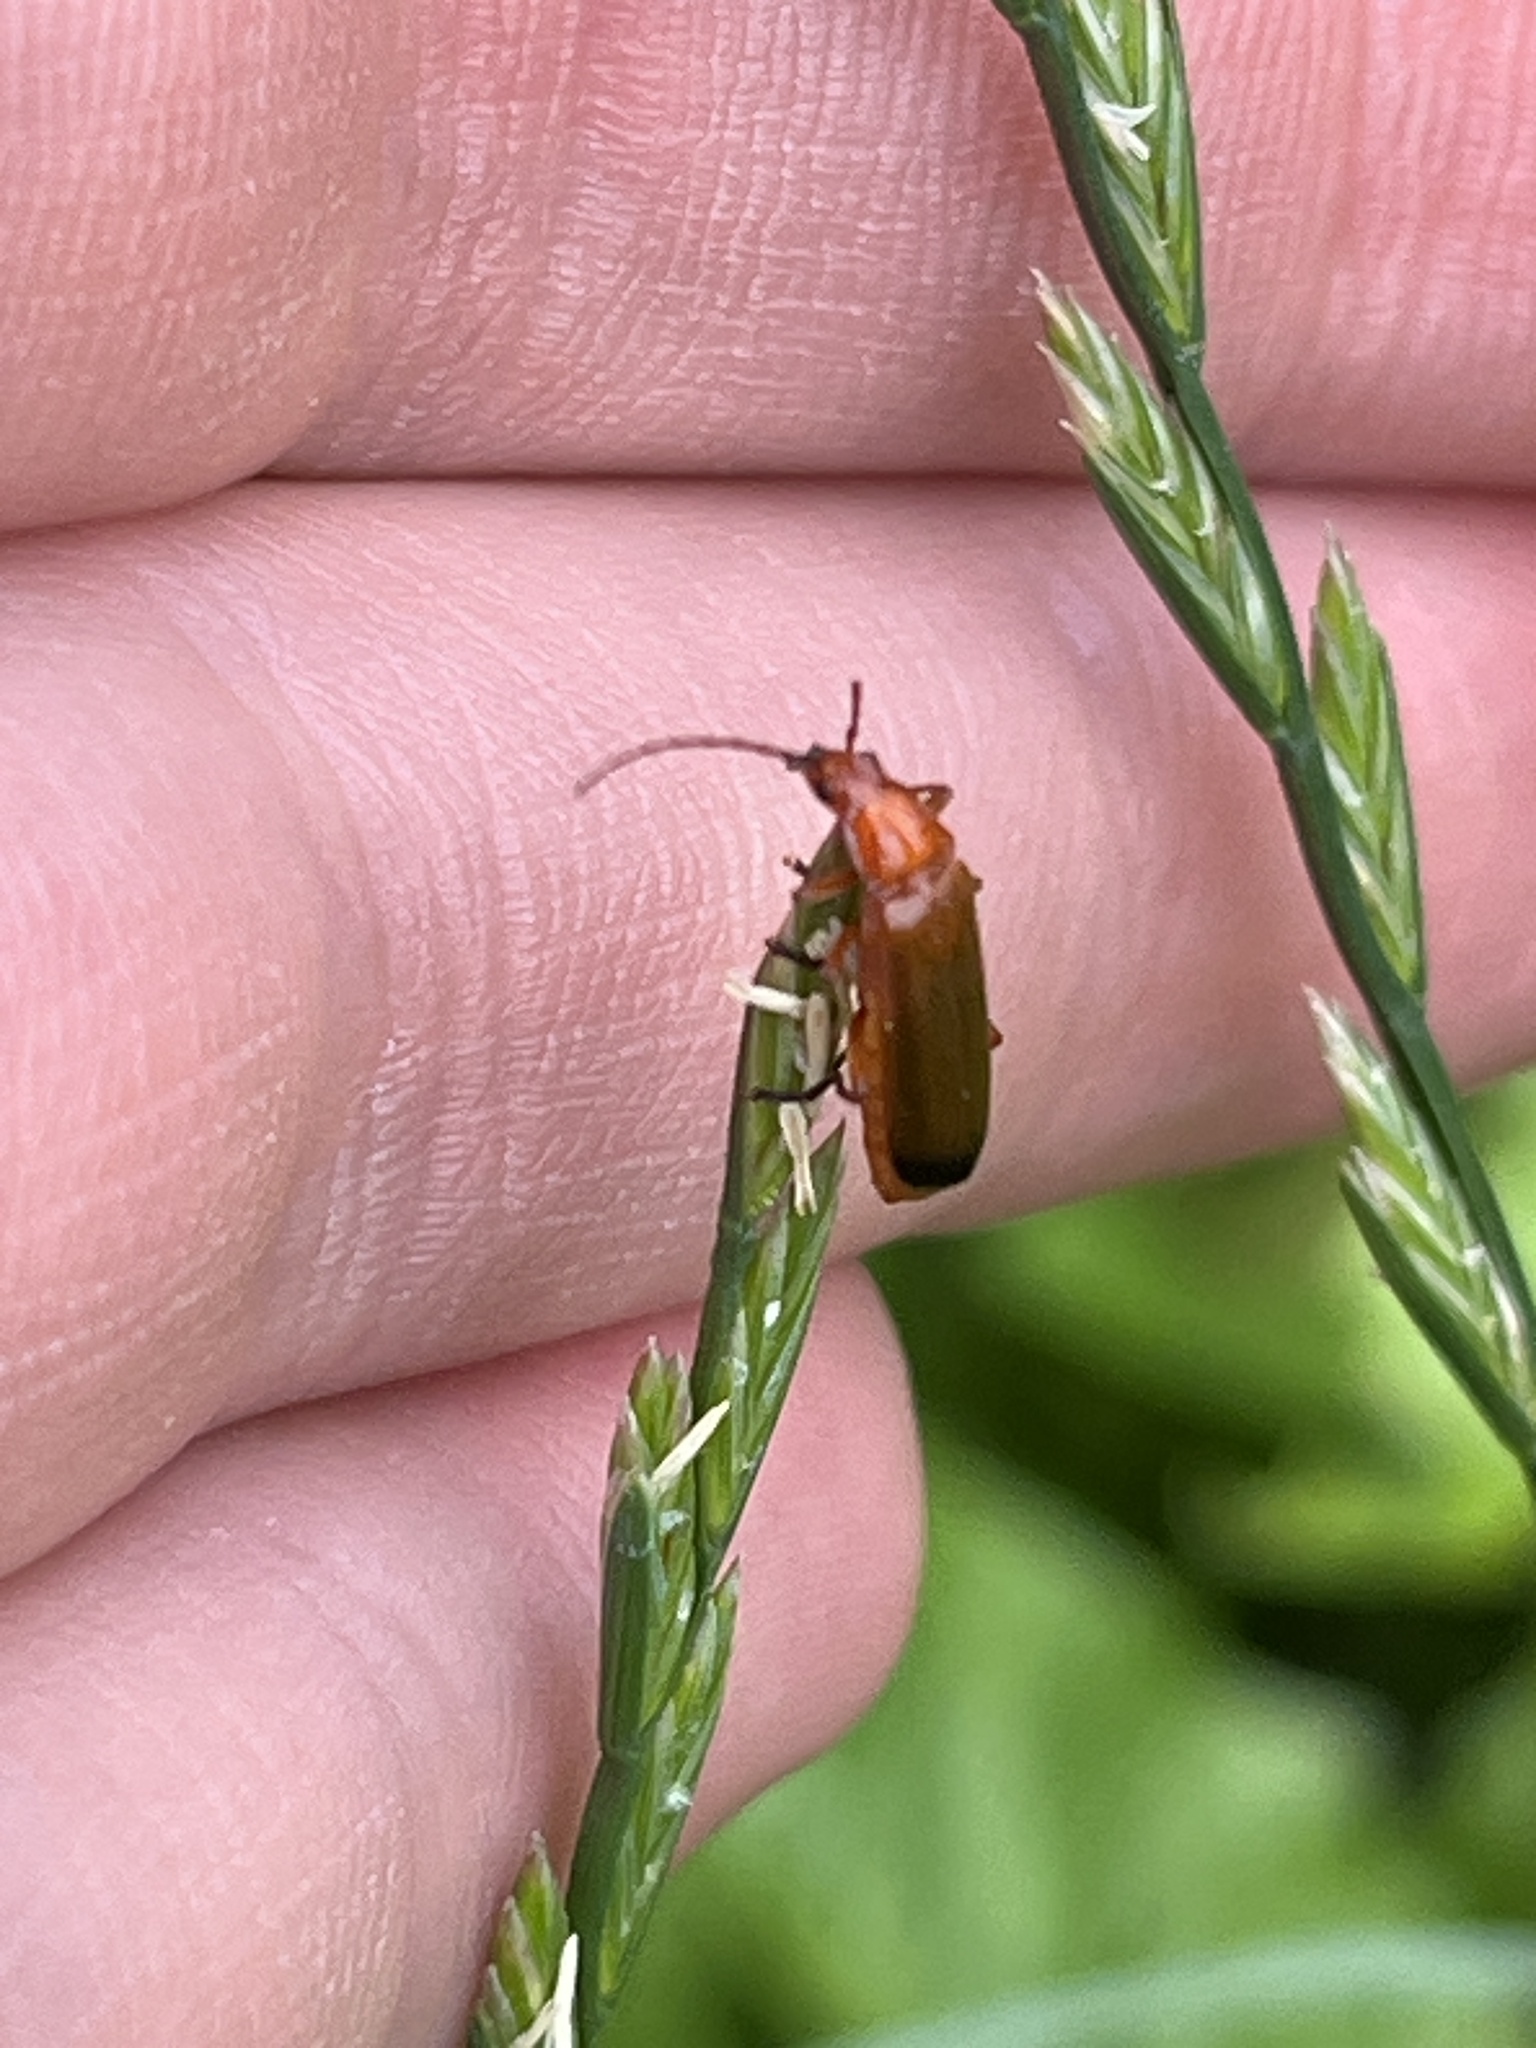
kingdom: Animalia
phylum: Arthropoda
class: Insecta
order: Coleoptera
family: Cantharidae
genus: Rhagonycha
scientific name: Rhagonycha fulva
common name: Common red soldier beetle
